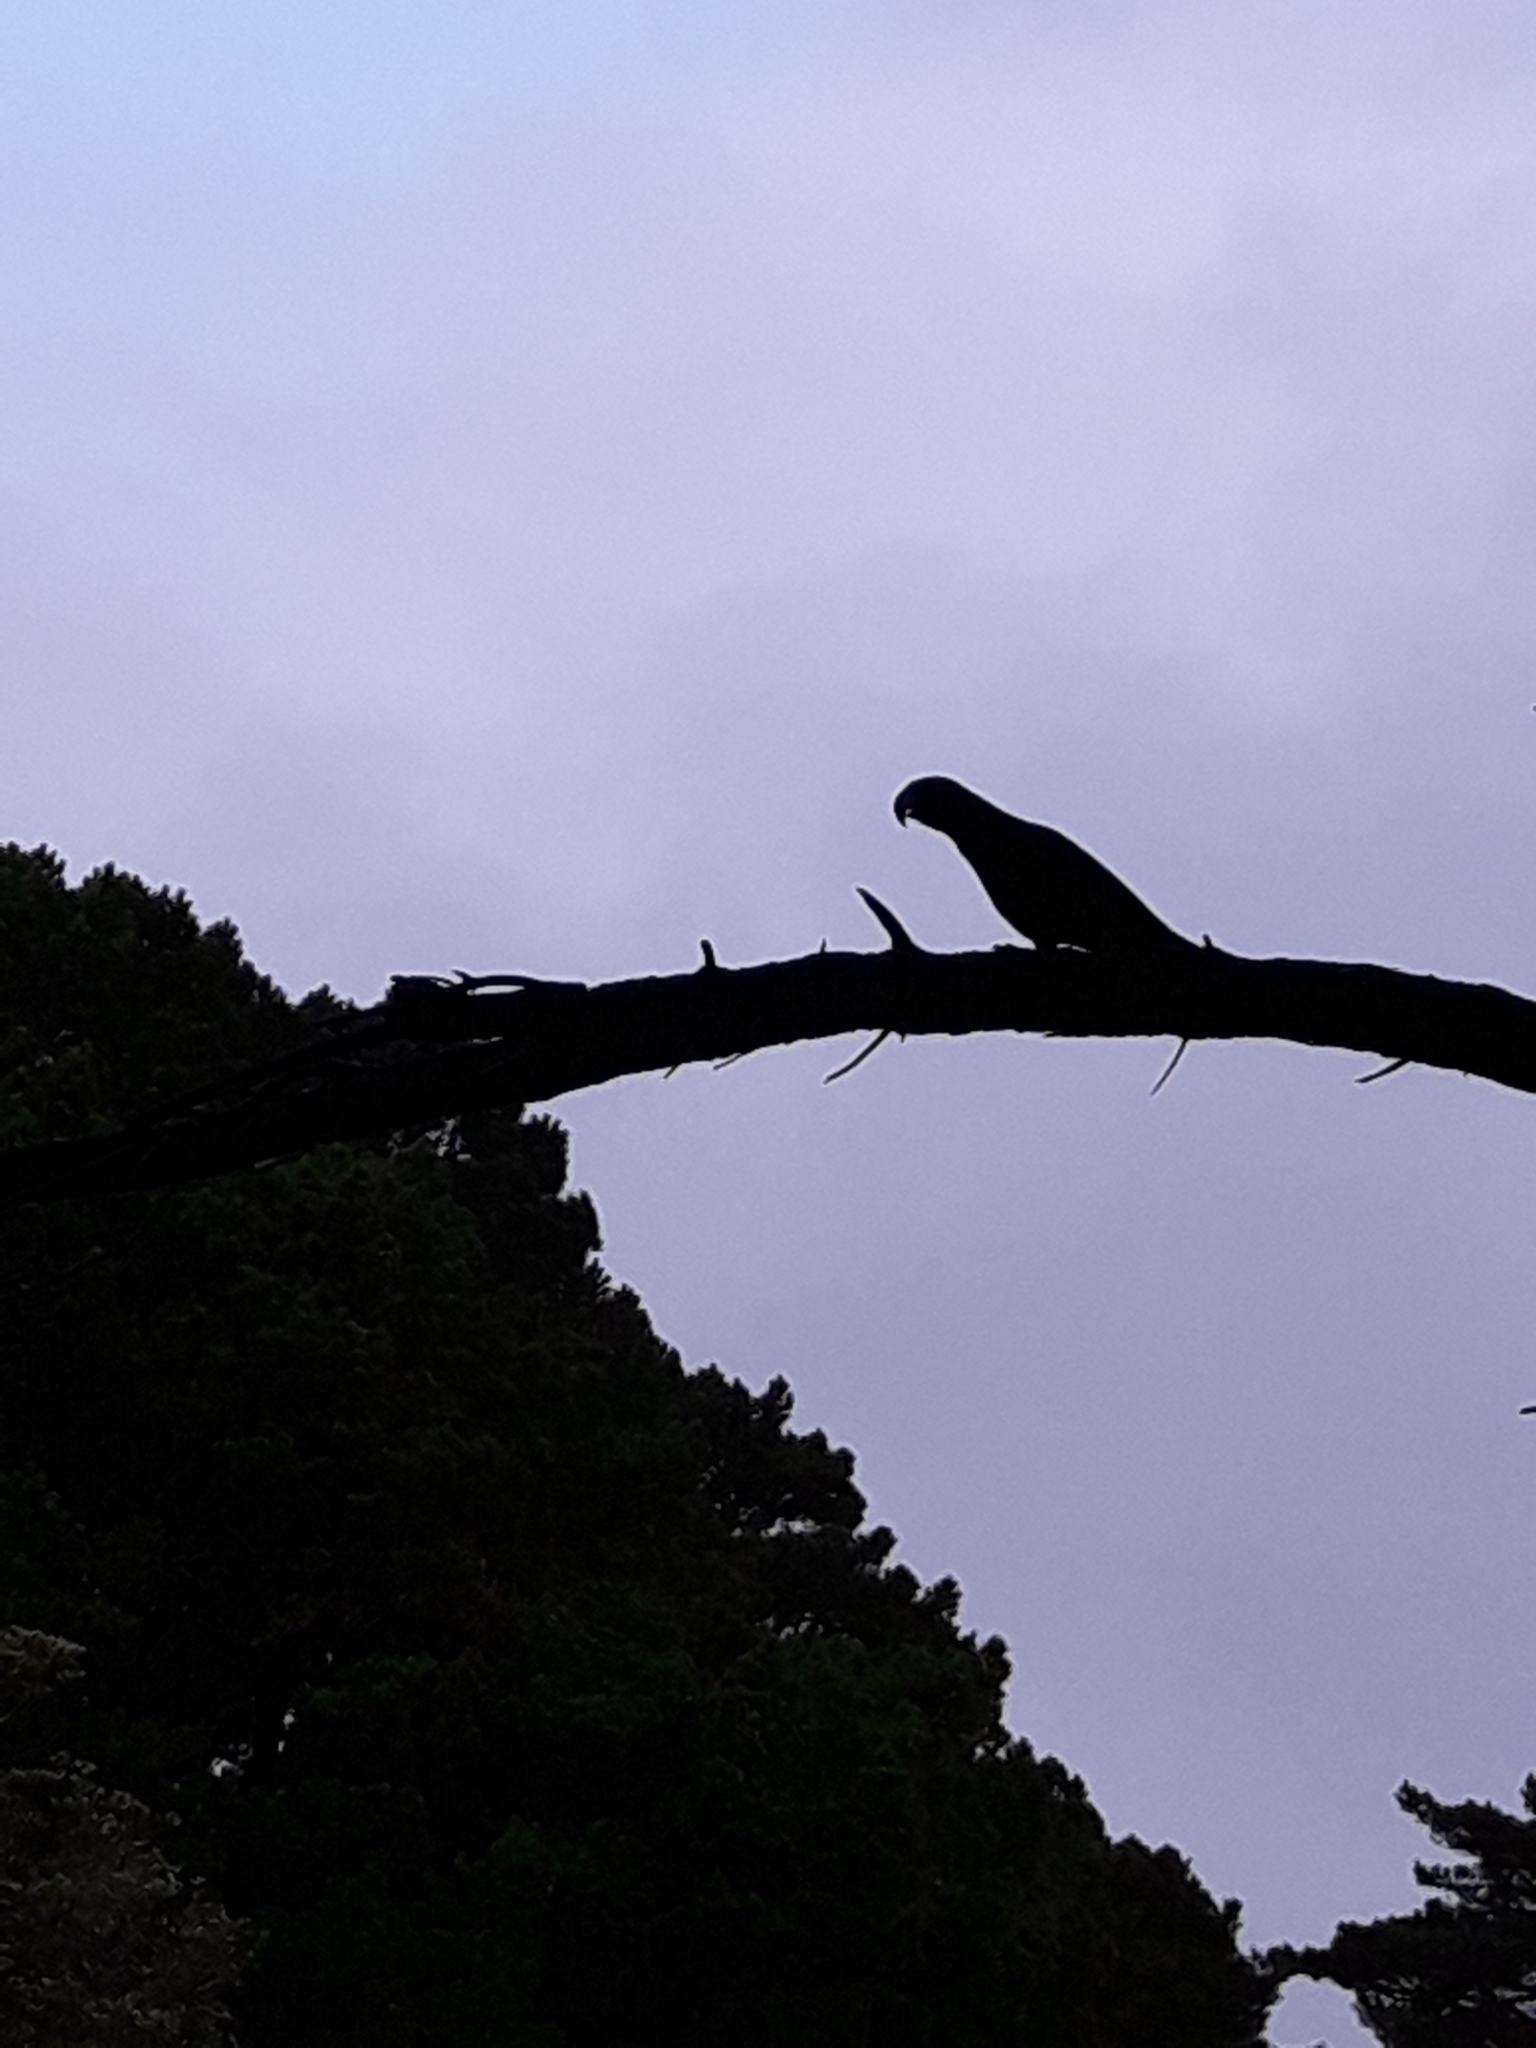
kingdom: Animalia
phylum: Chordata
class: Aves
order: Psittaciformes
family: Psittacidae
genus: Nestor
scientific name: Nestor meridionalis
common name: New zealand kaka
